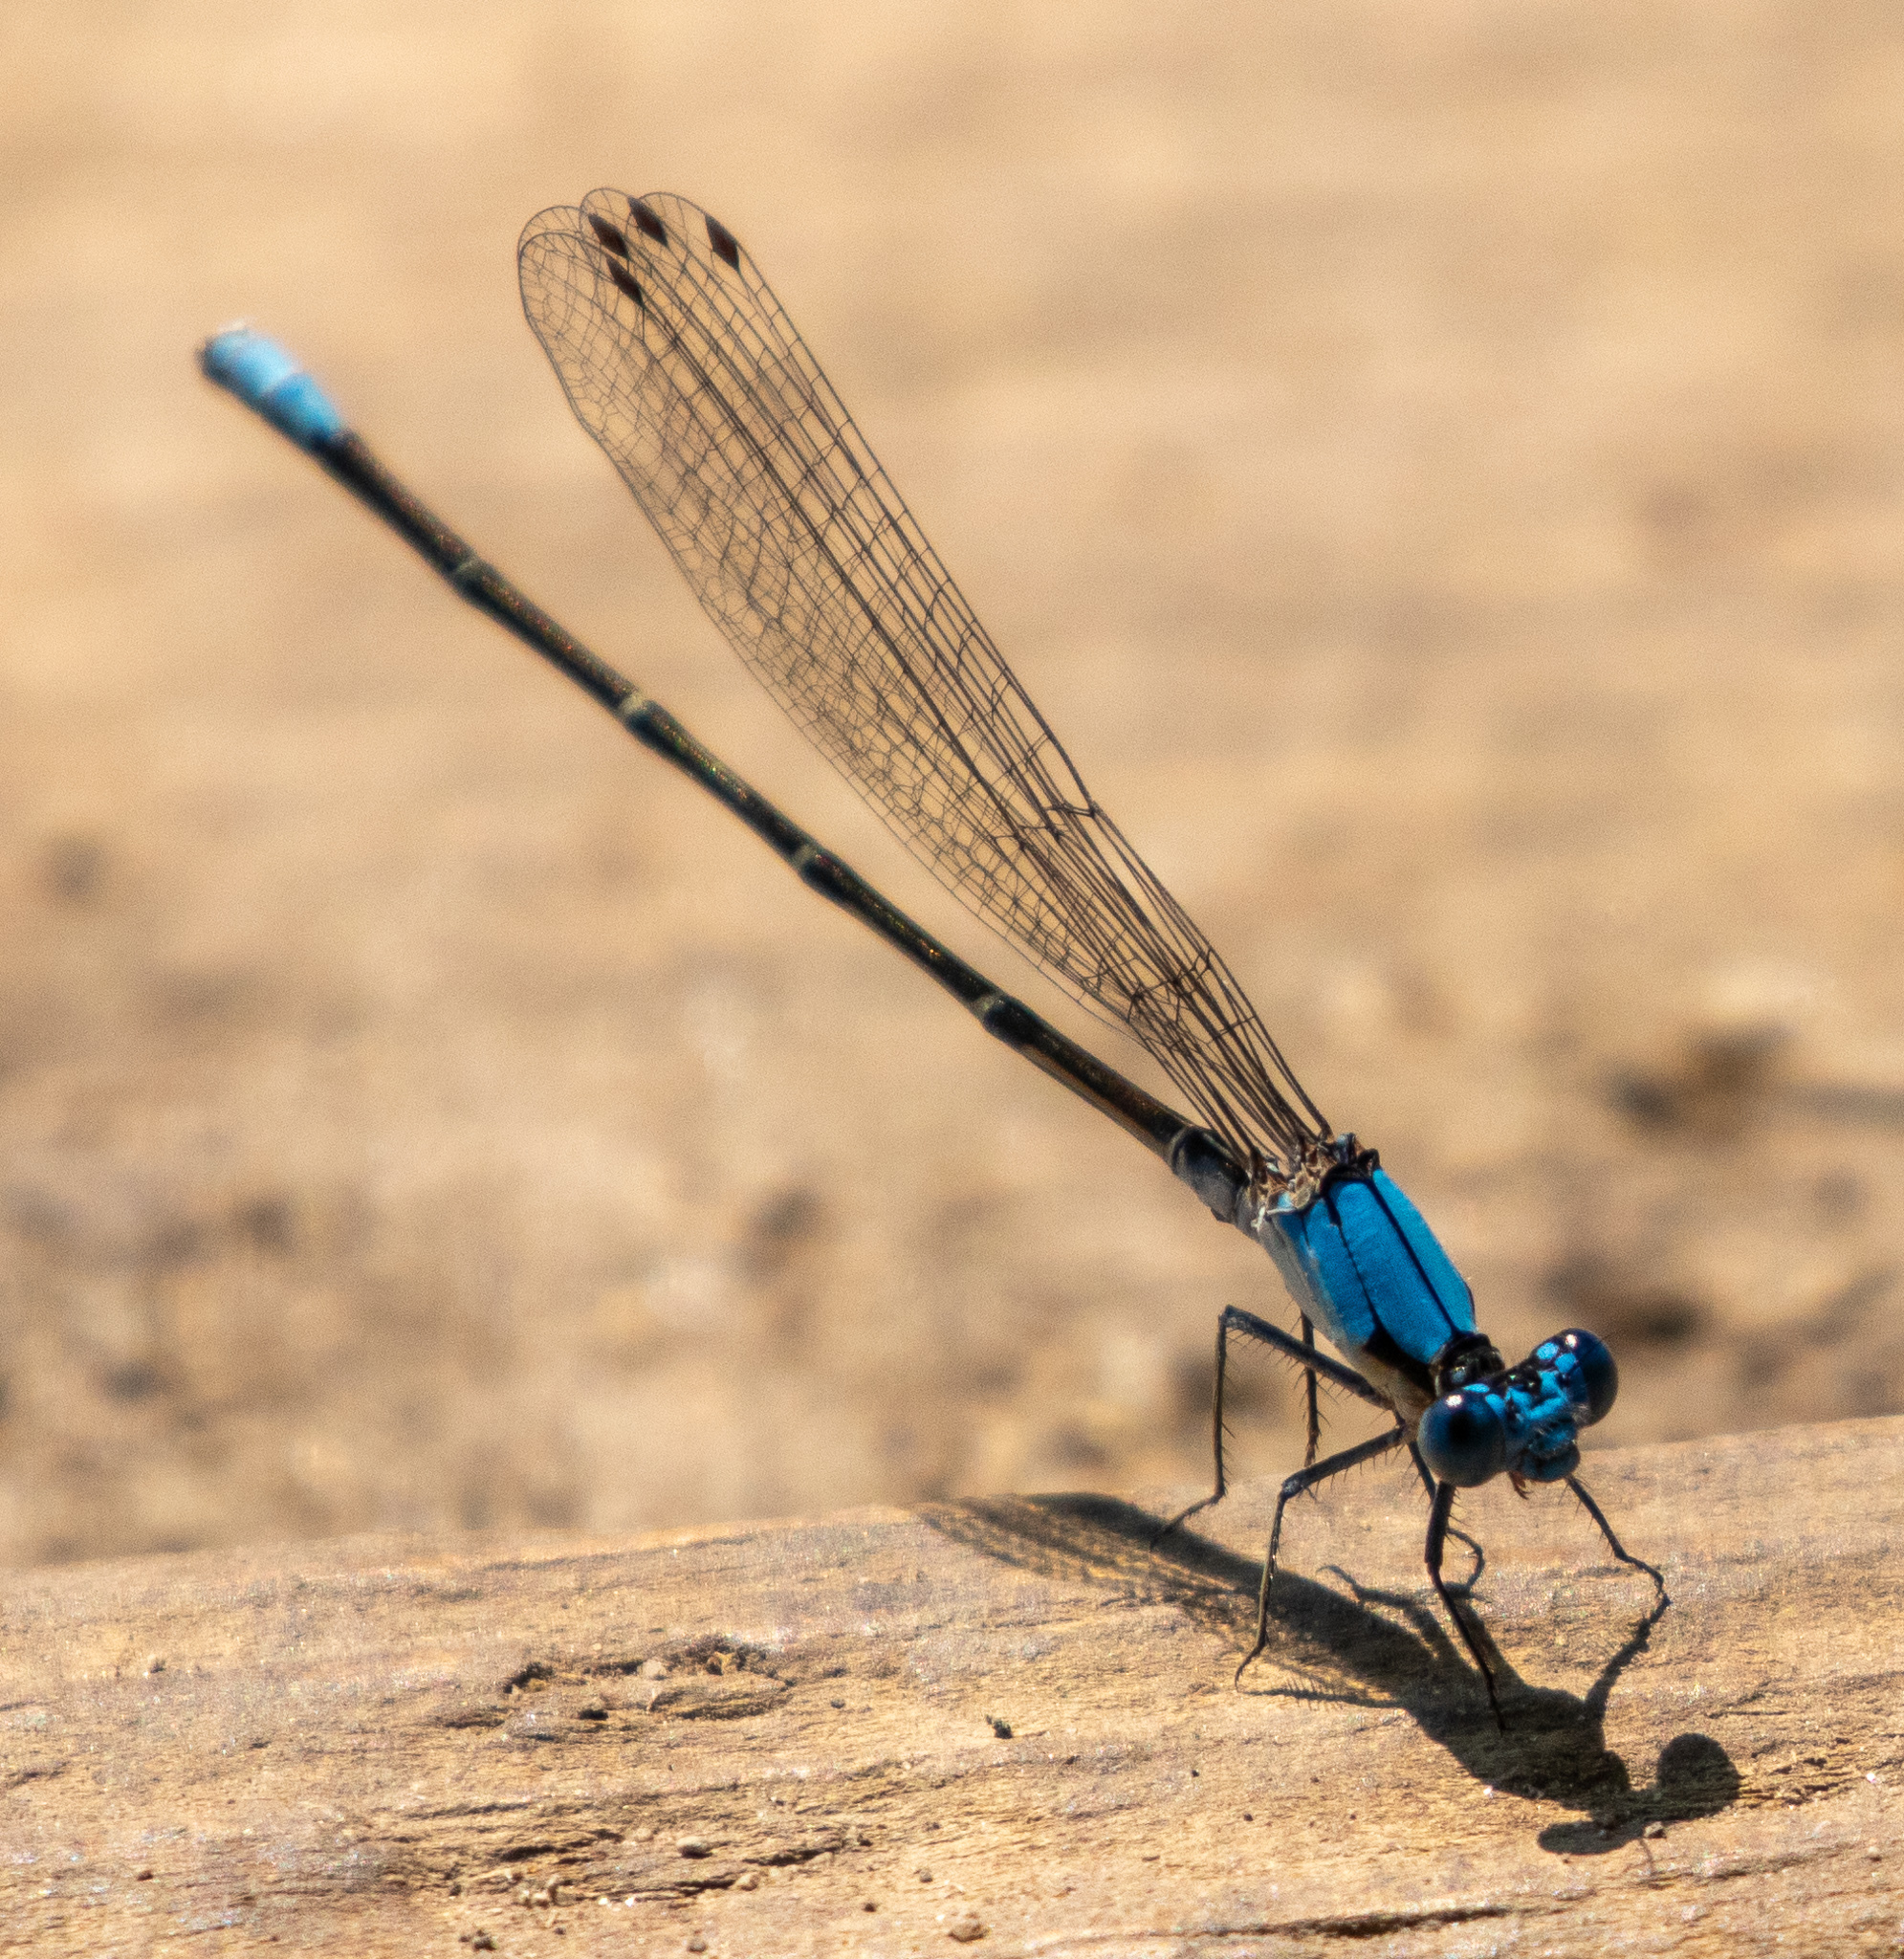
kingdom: Animalia
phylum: Arthropoda
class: Insecta
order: Odonata
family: Coenagrionidae
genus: Argia
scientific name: Argia apicalis
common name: Blue-fronted dancer
